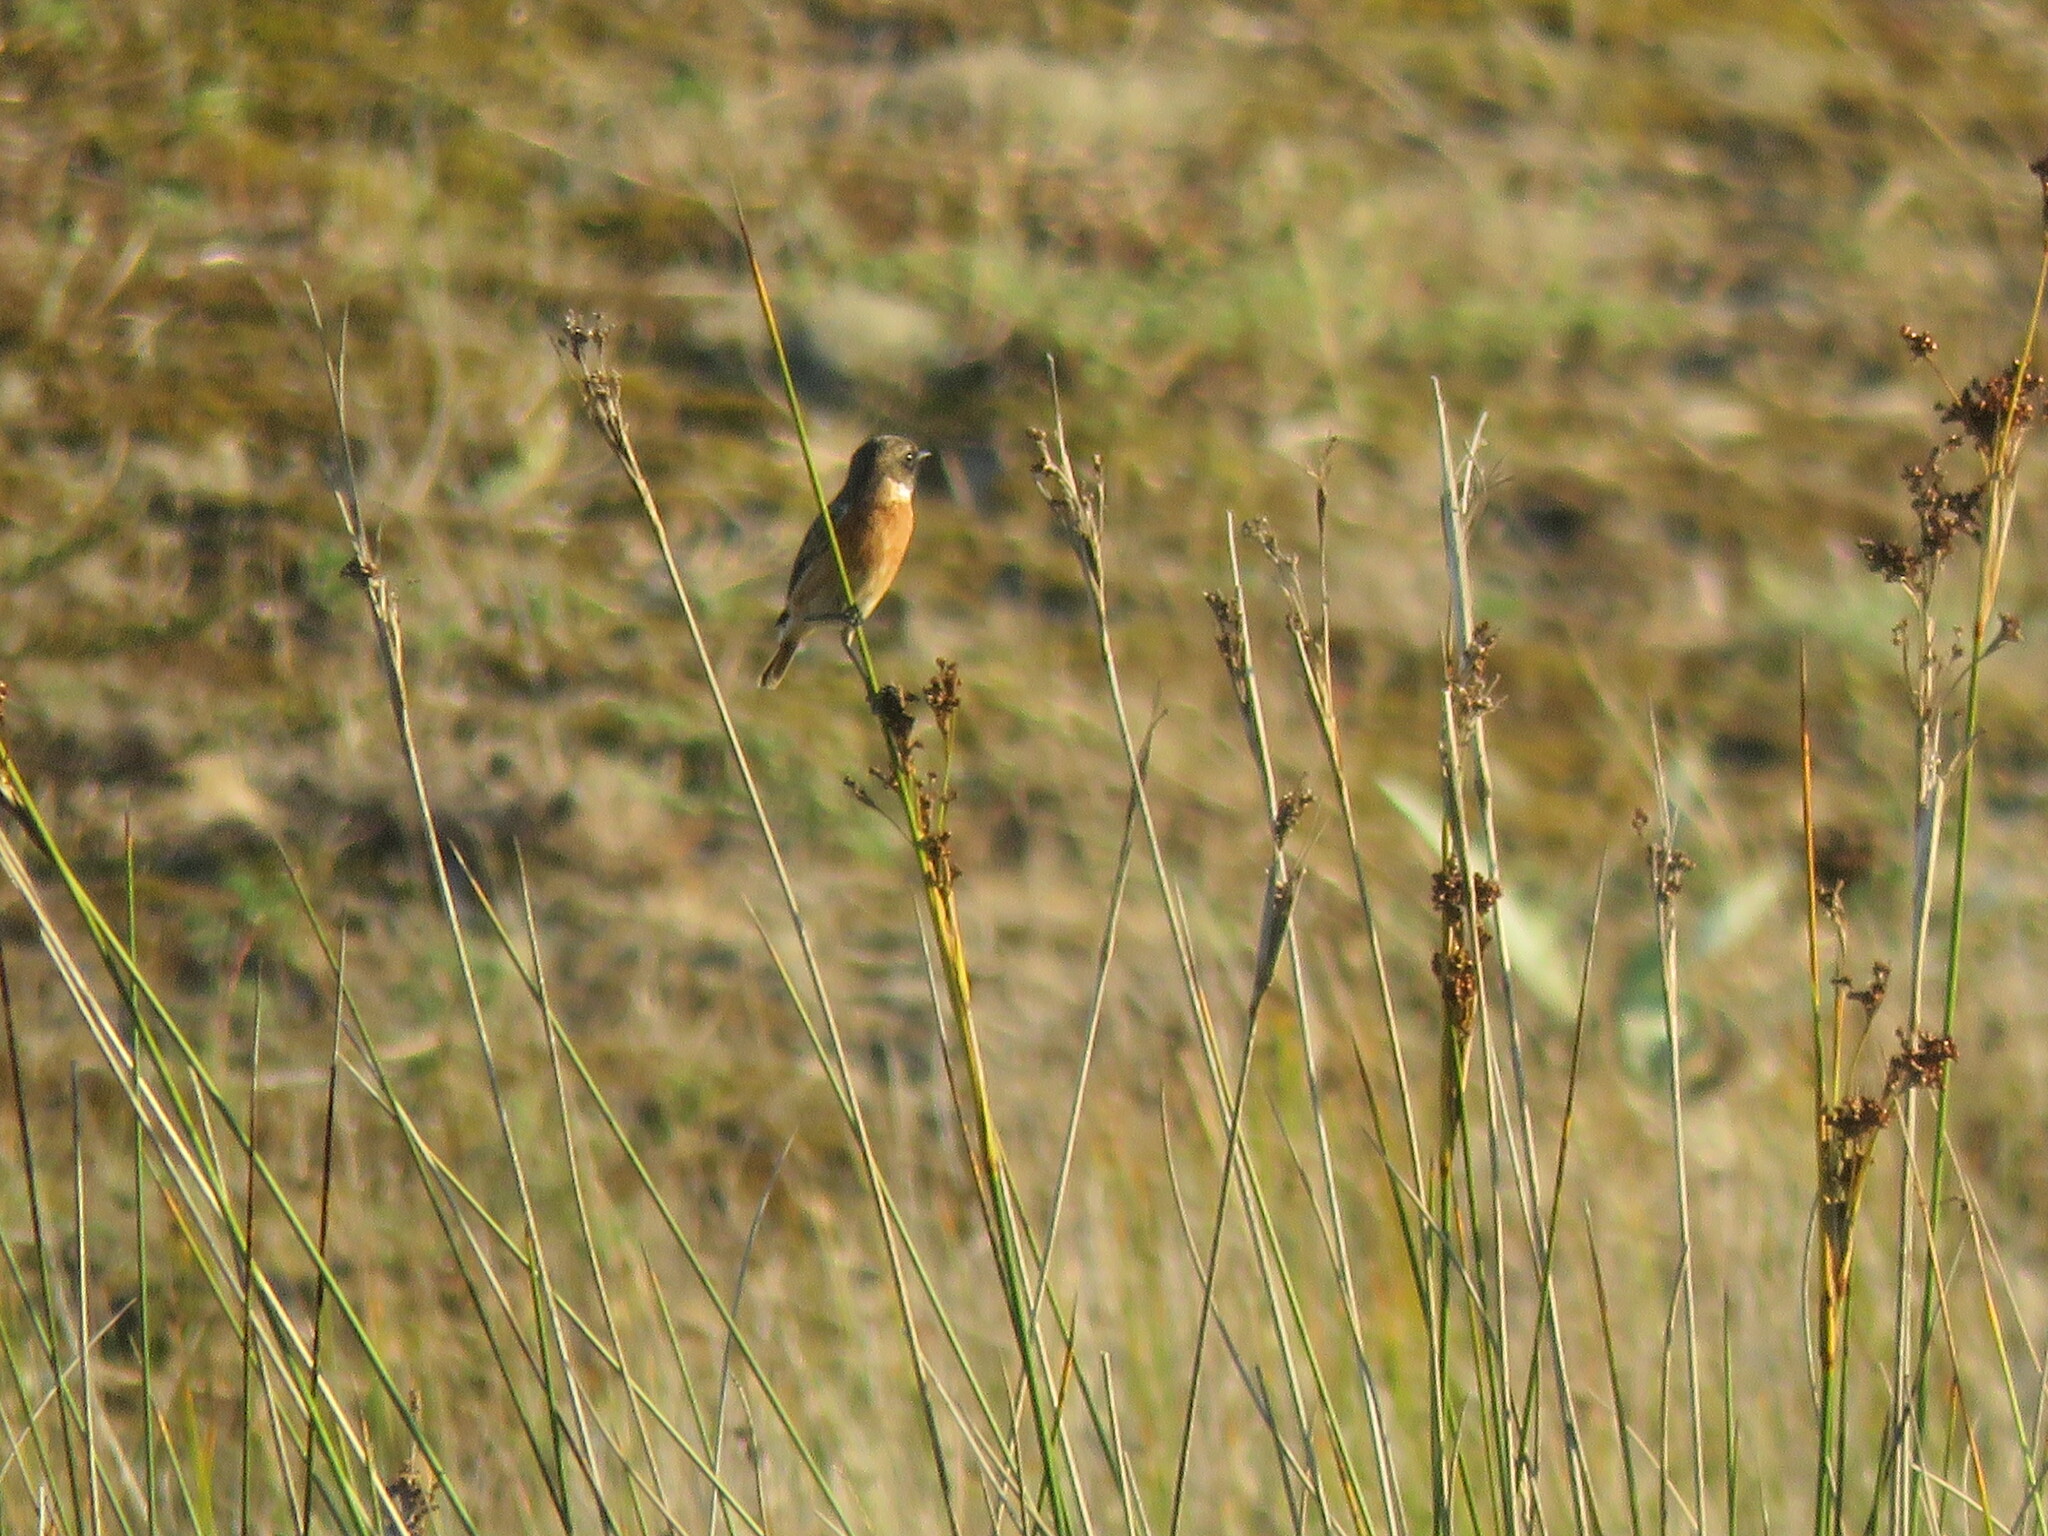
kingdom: Animalia
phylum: Chordata
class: Aves
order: Passeriformes
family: Muscicapidae
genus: Saxicola
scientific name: Saxicola rubicola
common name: European stonechat
